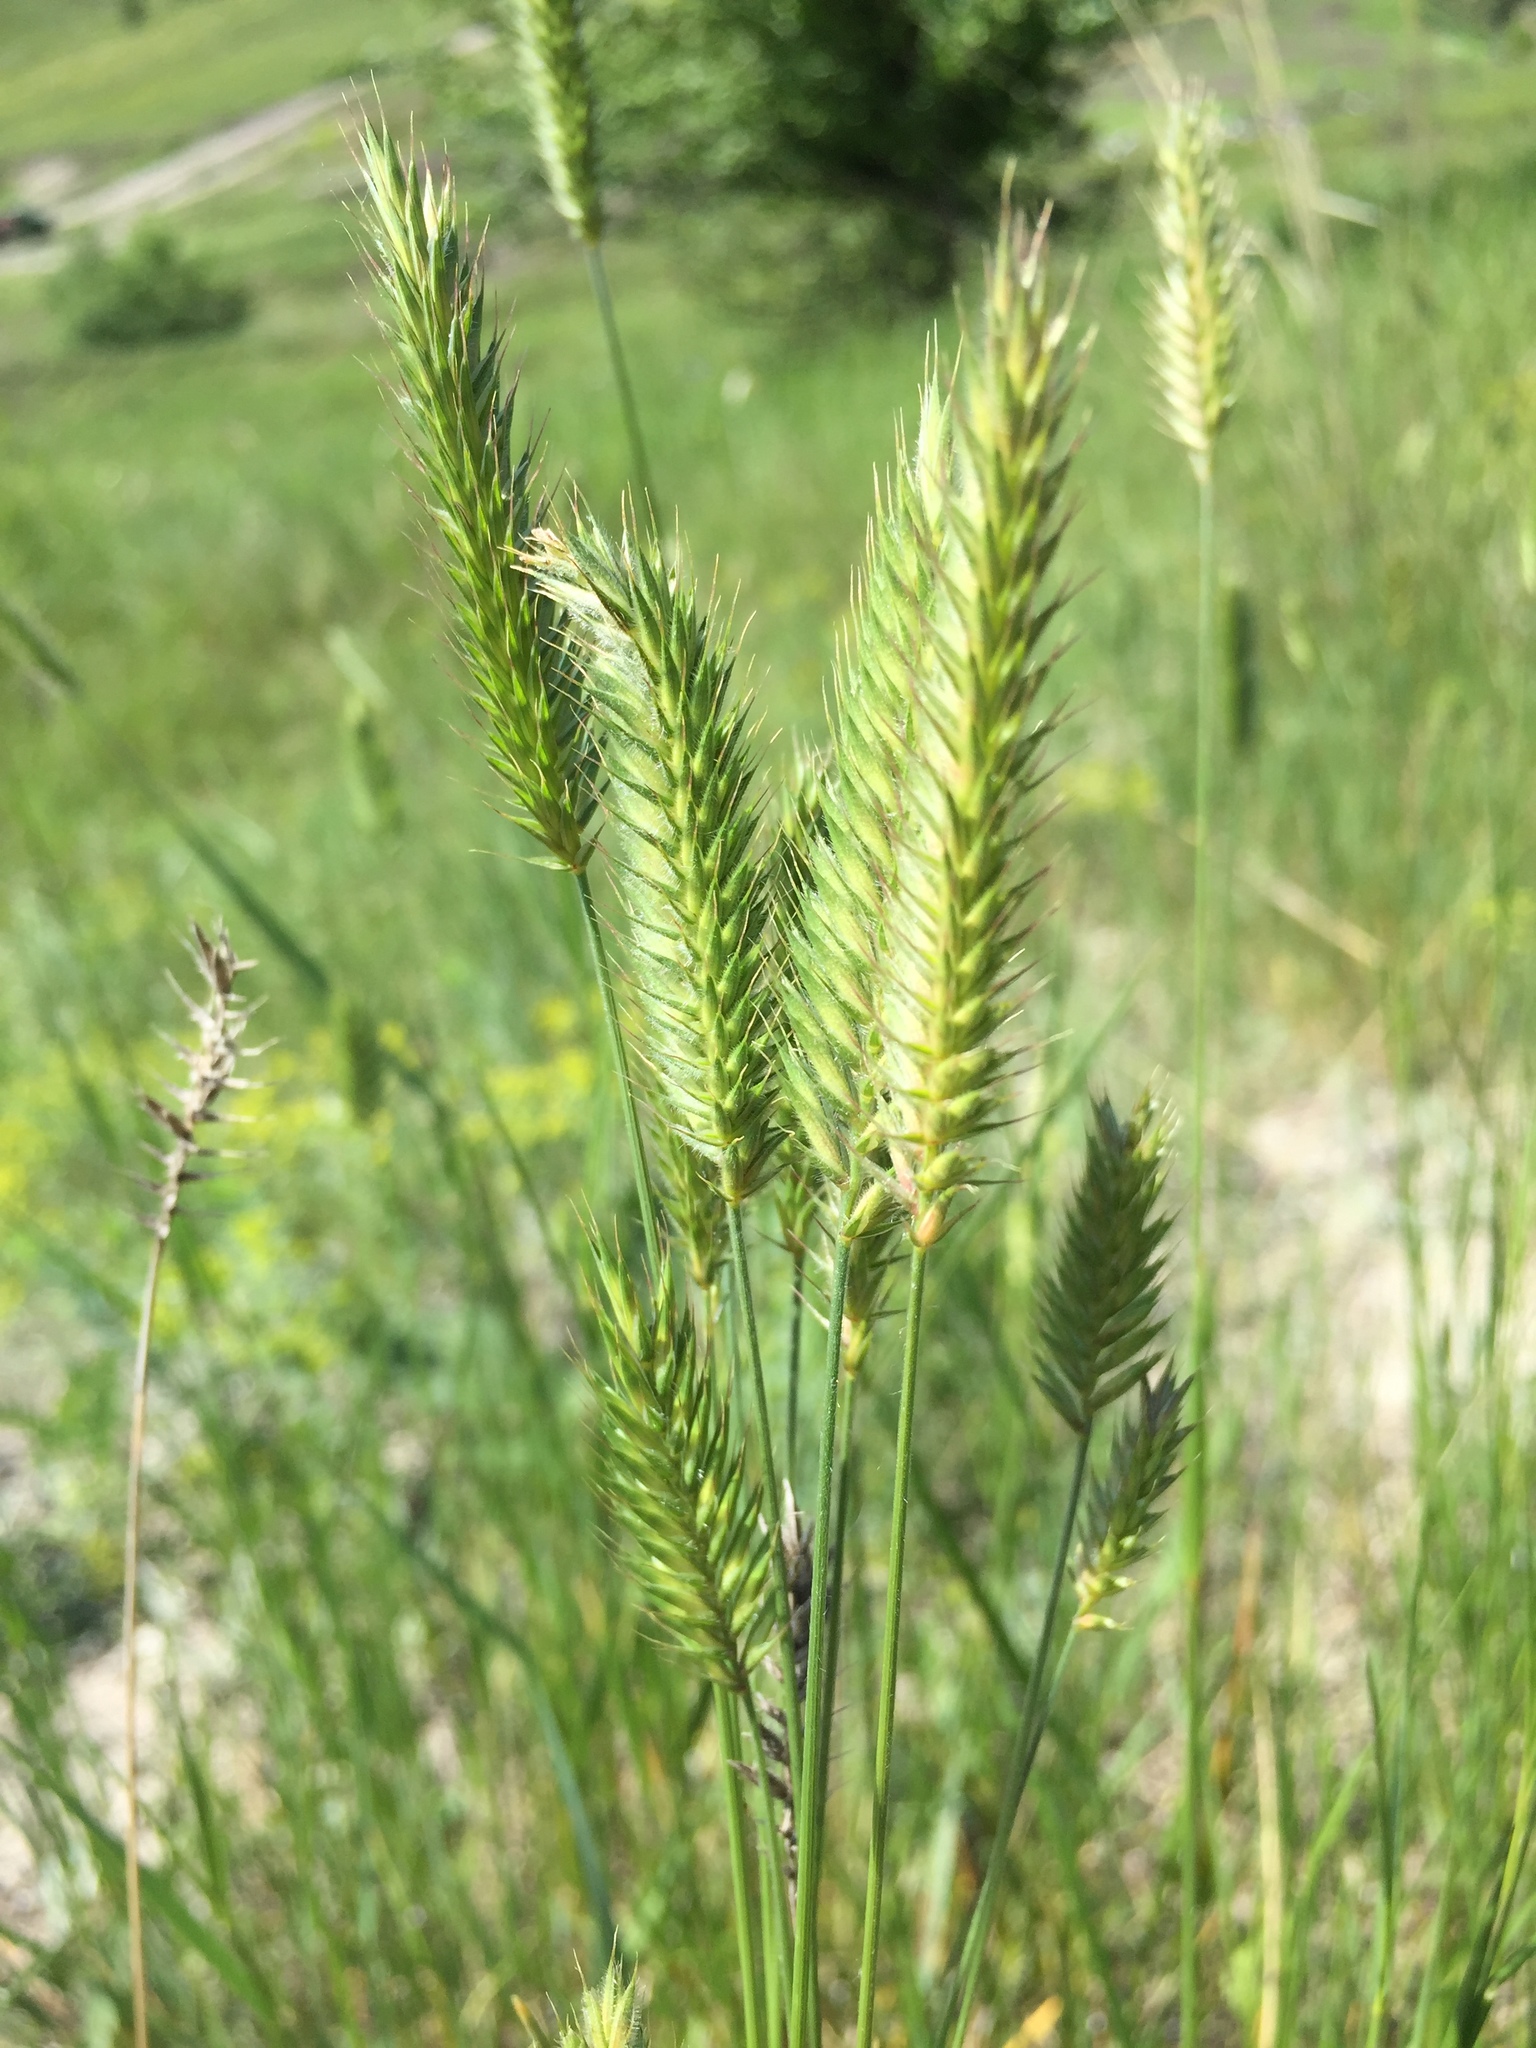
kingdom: Plantae
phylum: Tracheophyta
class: Liliopsida
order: Poales
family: Poaceae
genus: Agropyron
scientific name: Agropyron cristatum
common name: Crested wheatgrass
